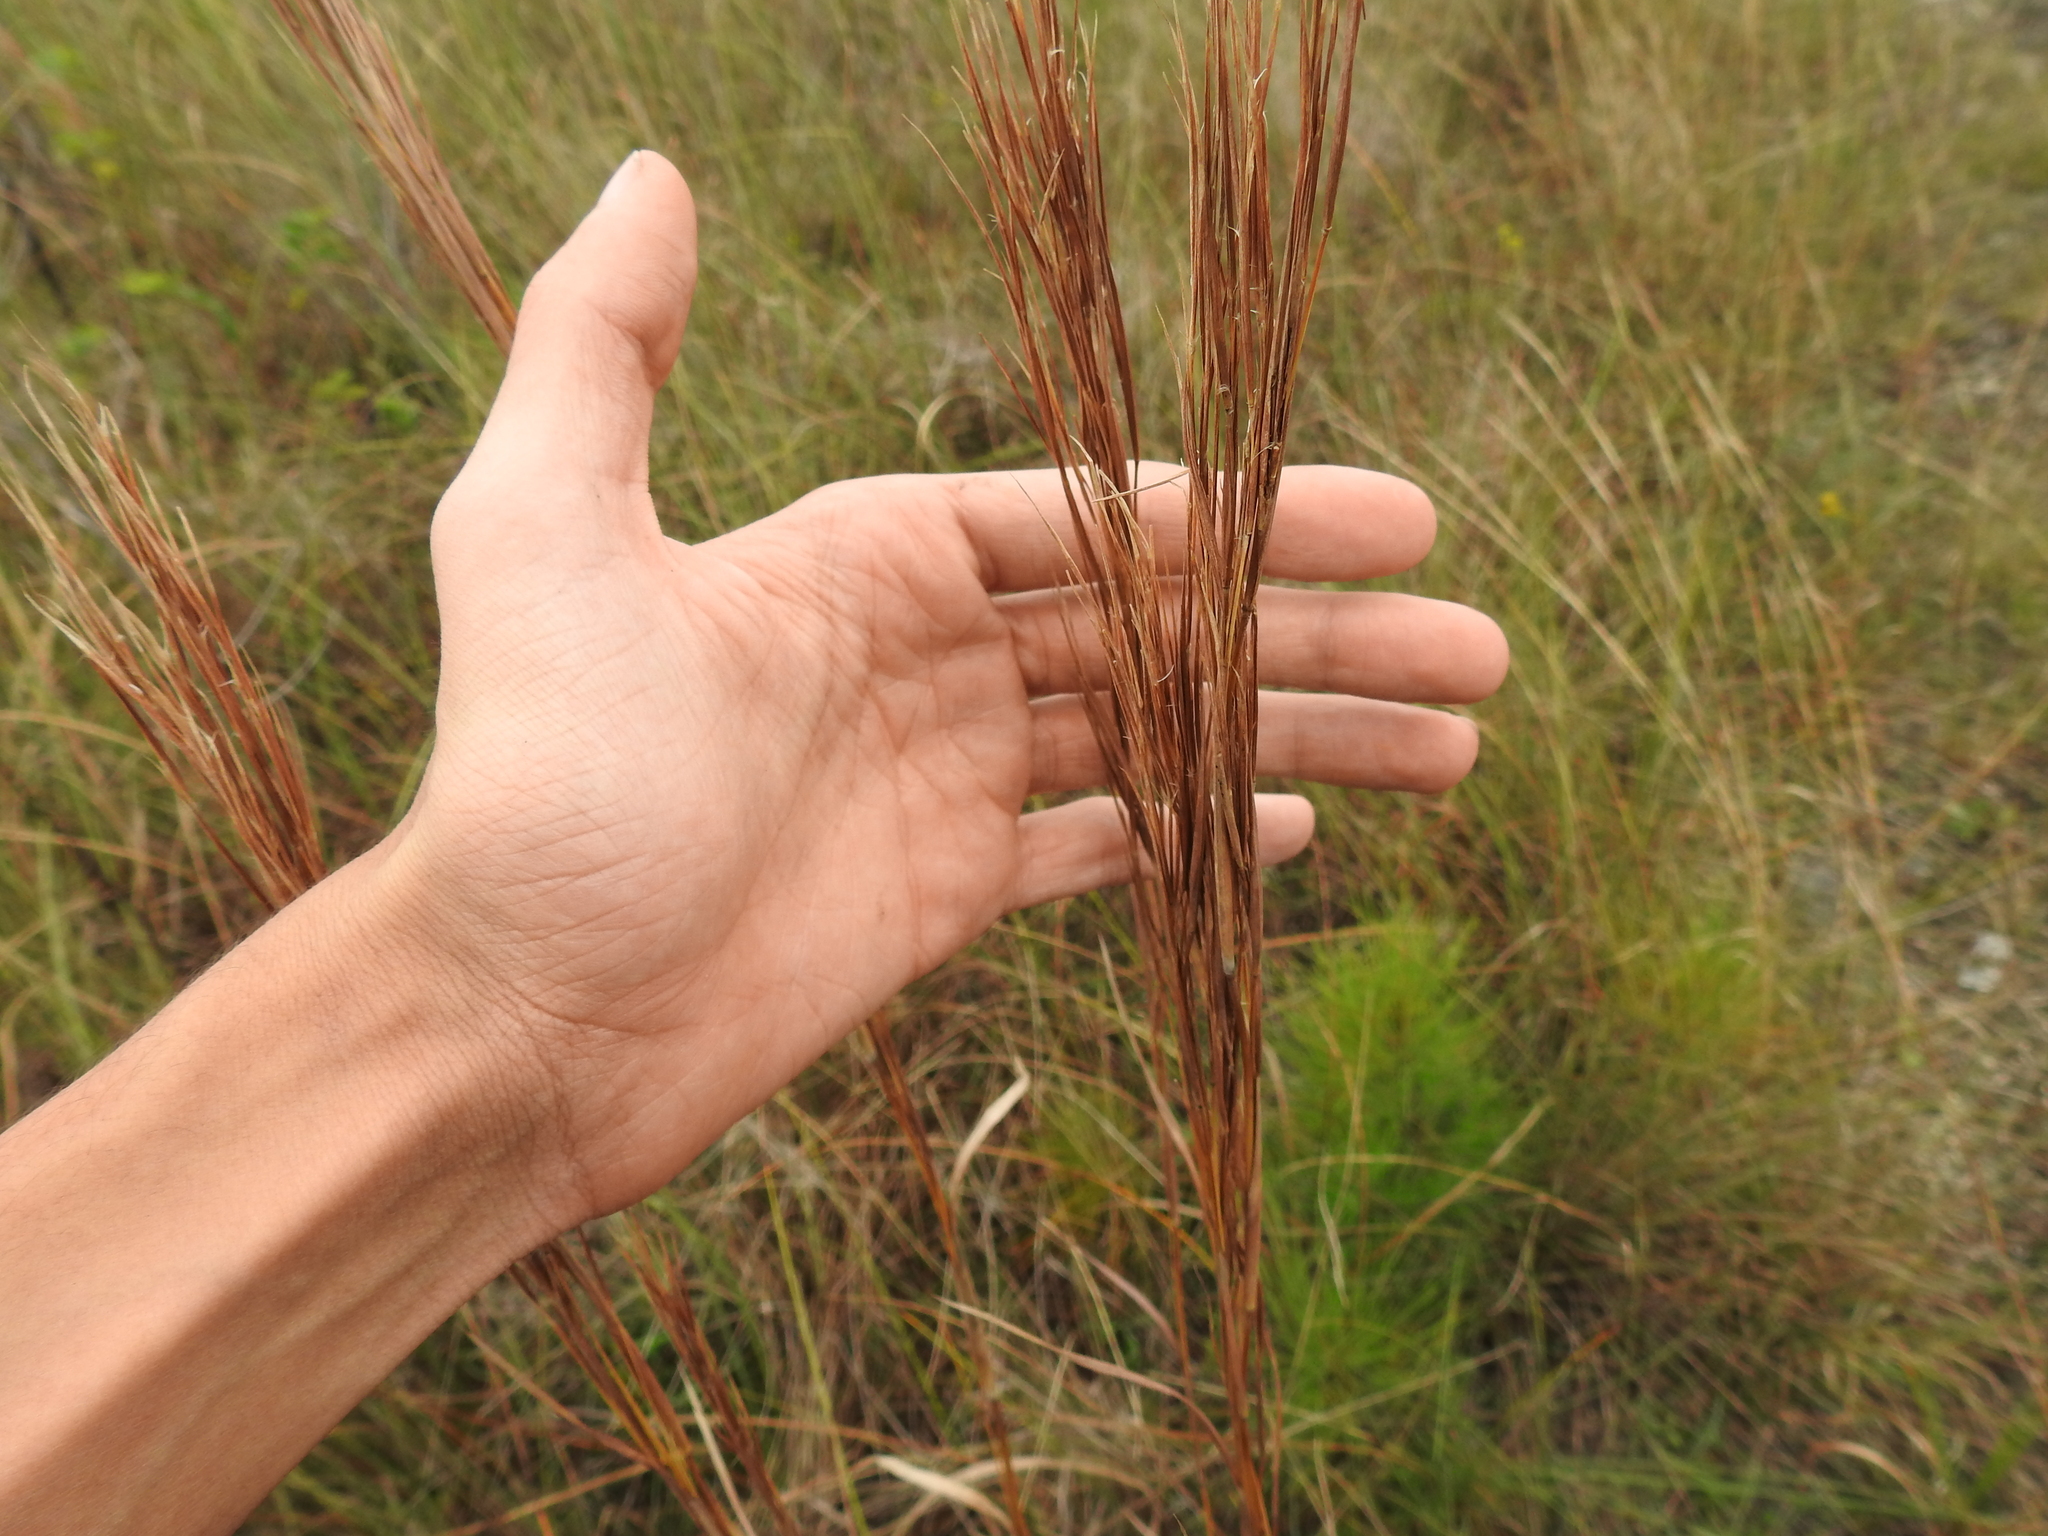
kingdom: Plantae
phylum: Tracheophyta
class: Liliopsida
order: Poales
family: Poaceae
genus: Andropogon
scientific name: Andropogon tenuispatheus
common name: Bushy bluestem
